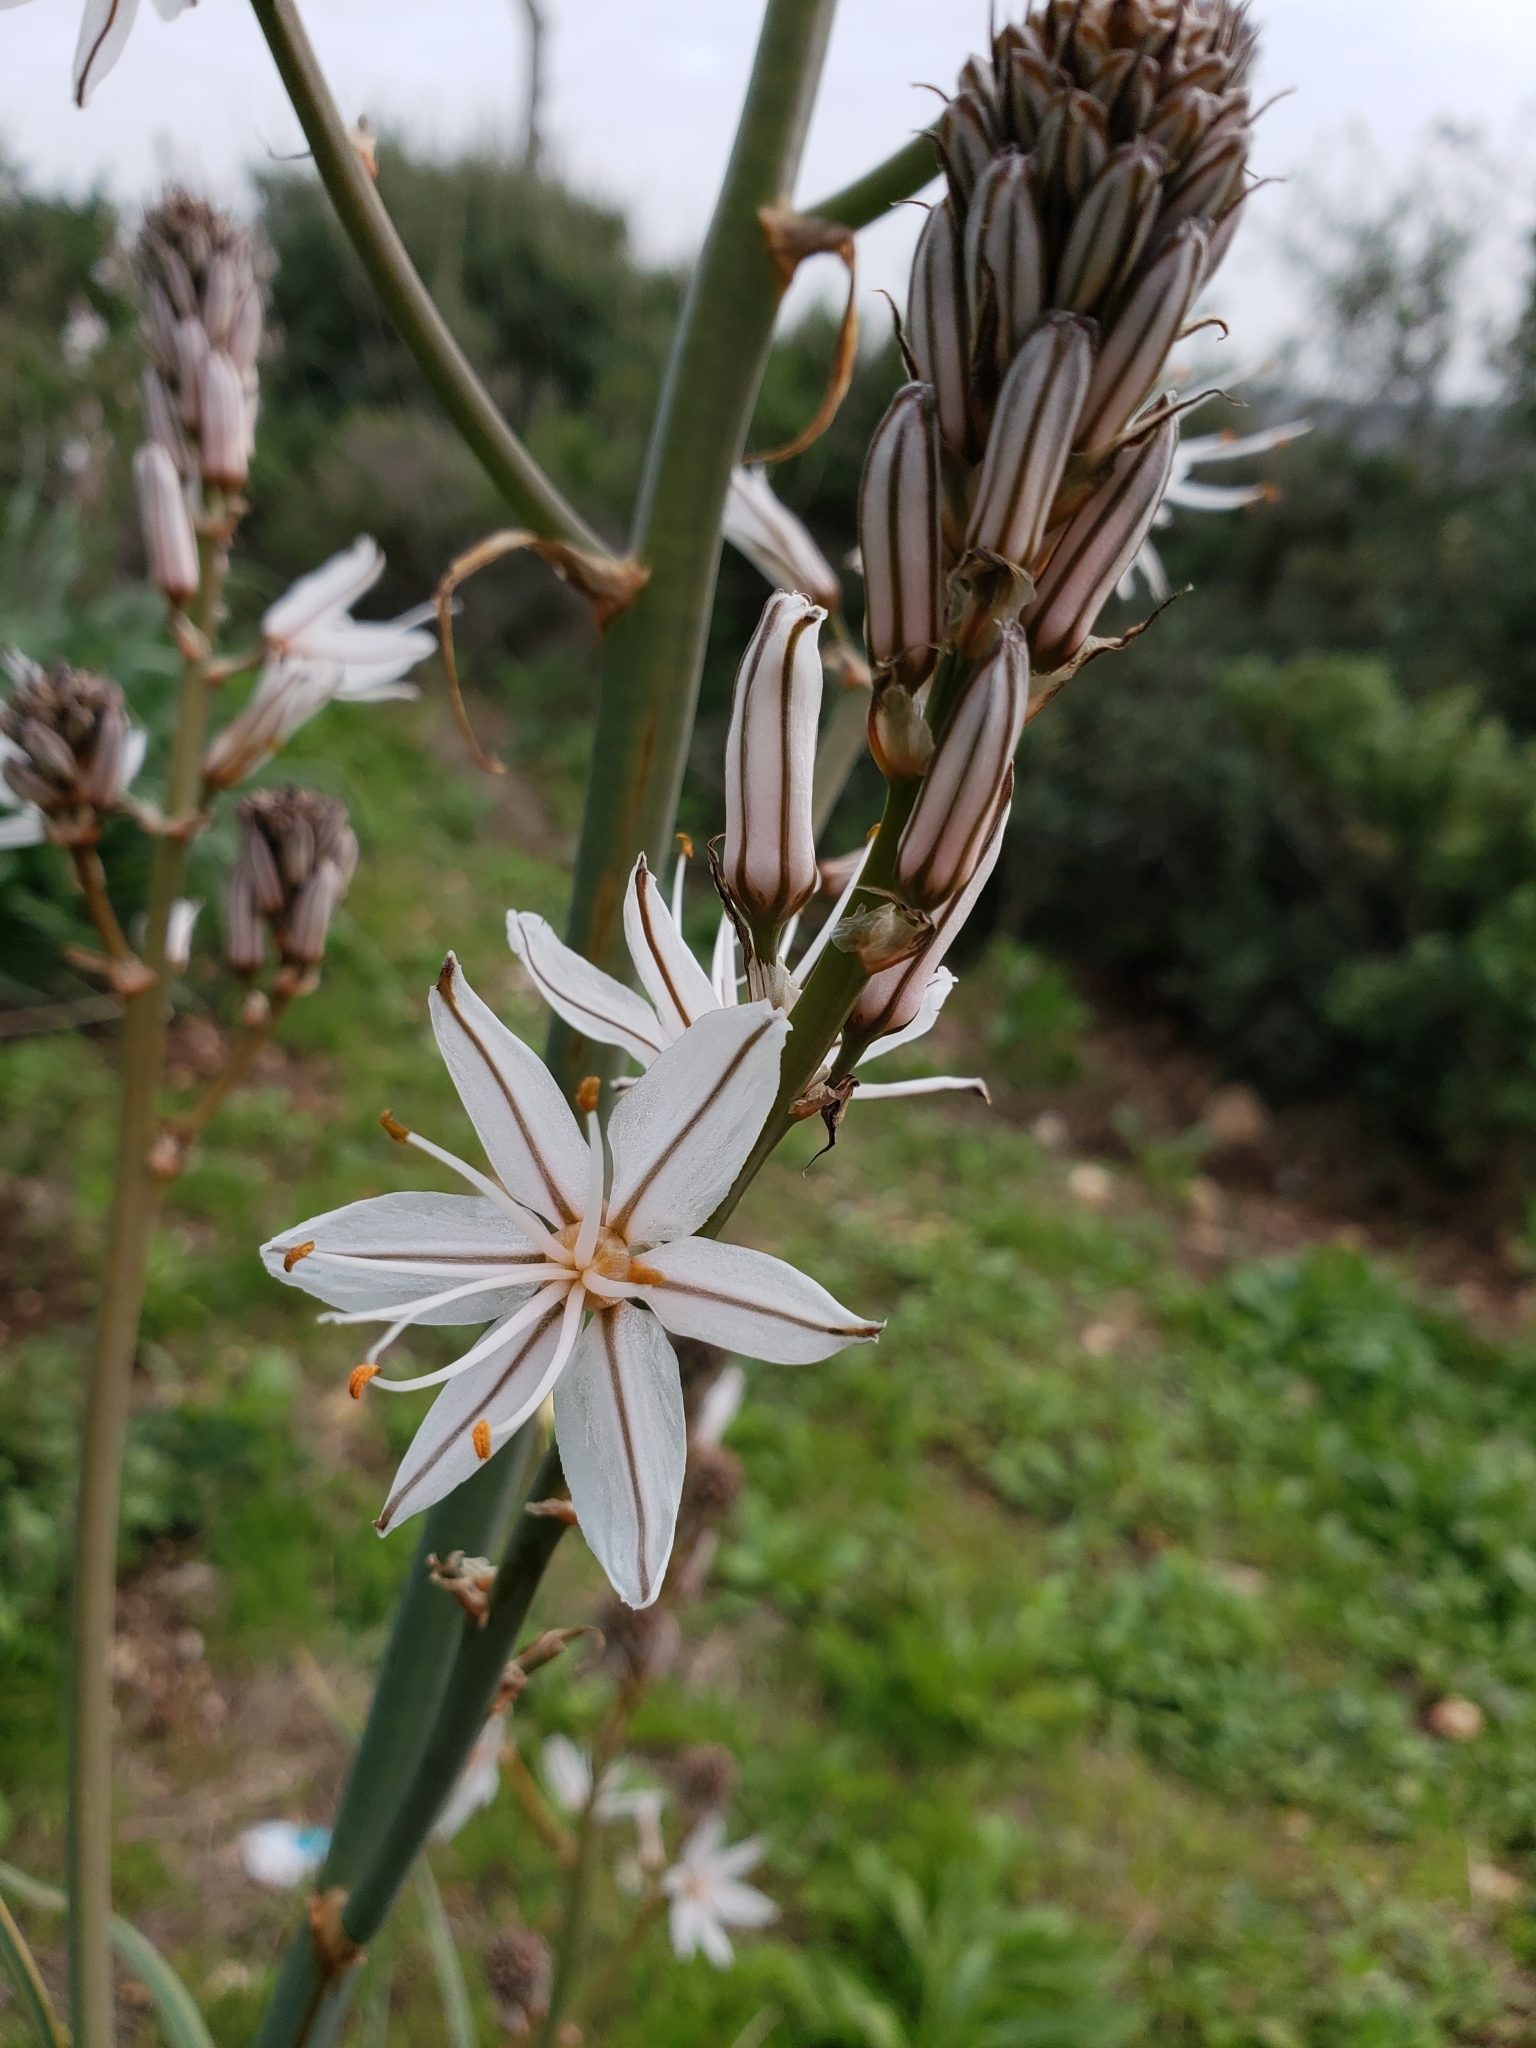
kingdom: Plantae
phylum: Tracheophyta
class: Liliopsida
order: Asparagales
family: Asphodelaceae
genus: Asphodelus
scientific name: Asphodelus ramosus
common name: Silverrod
